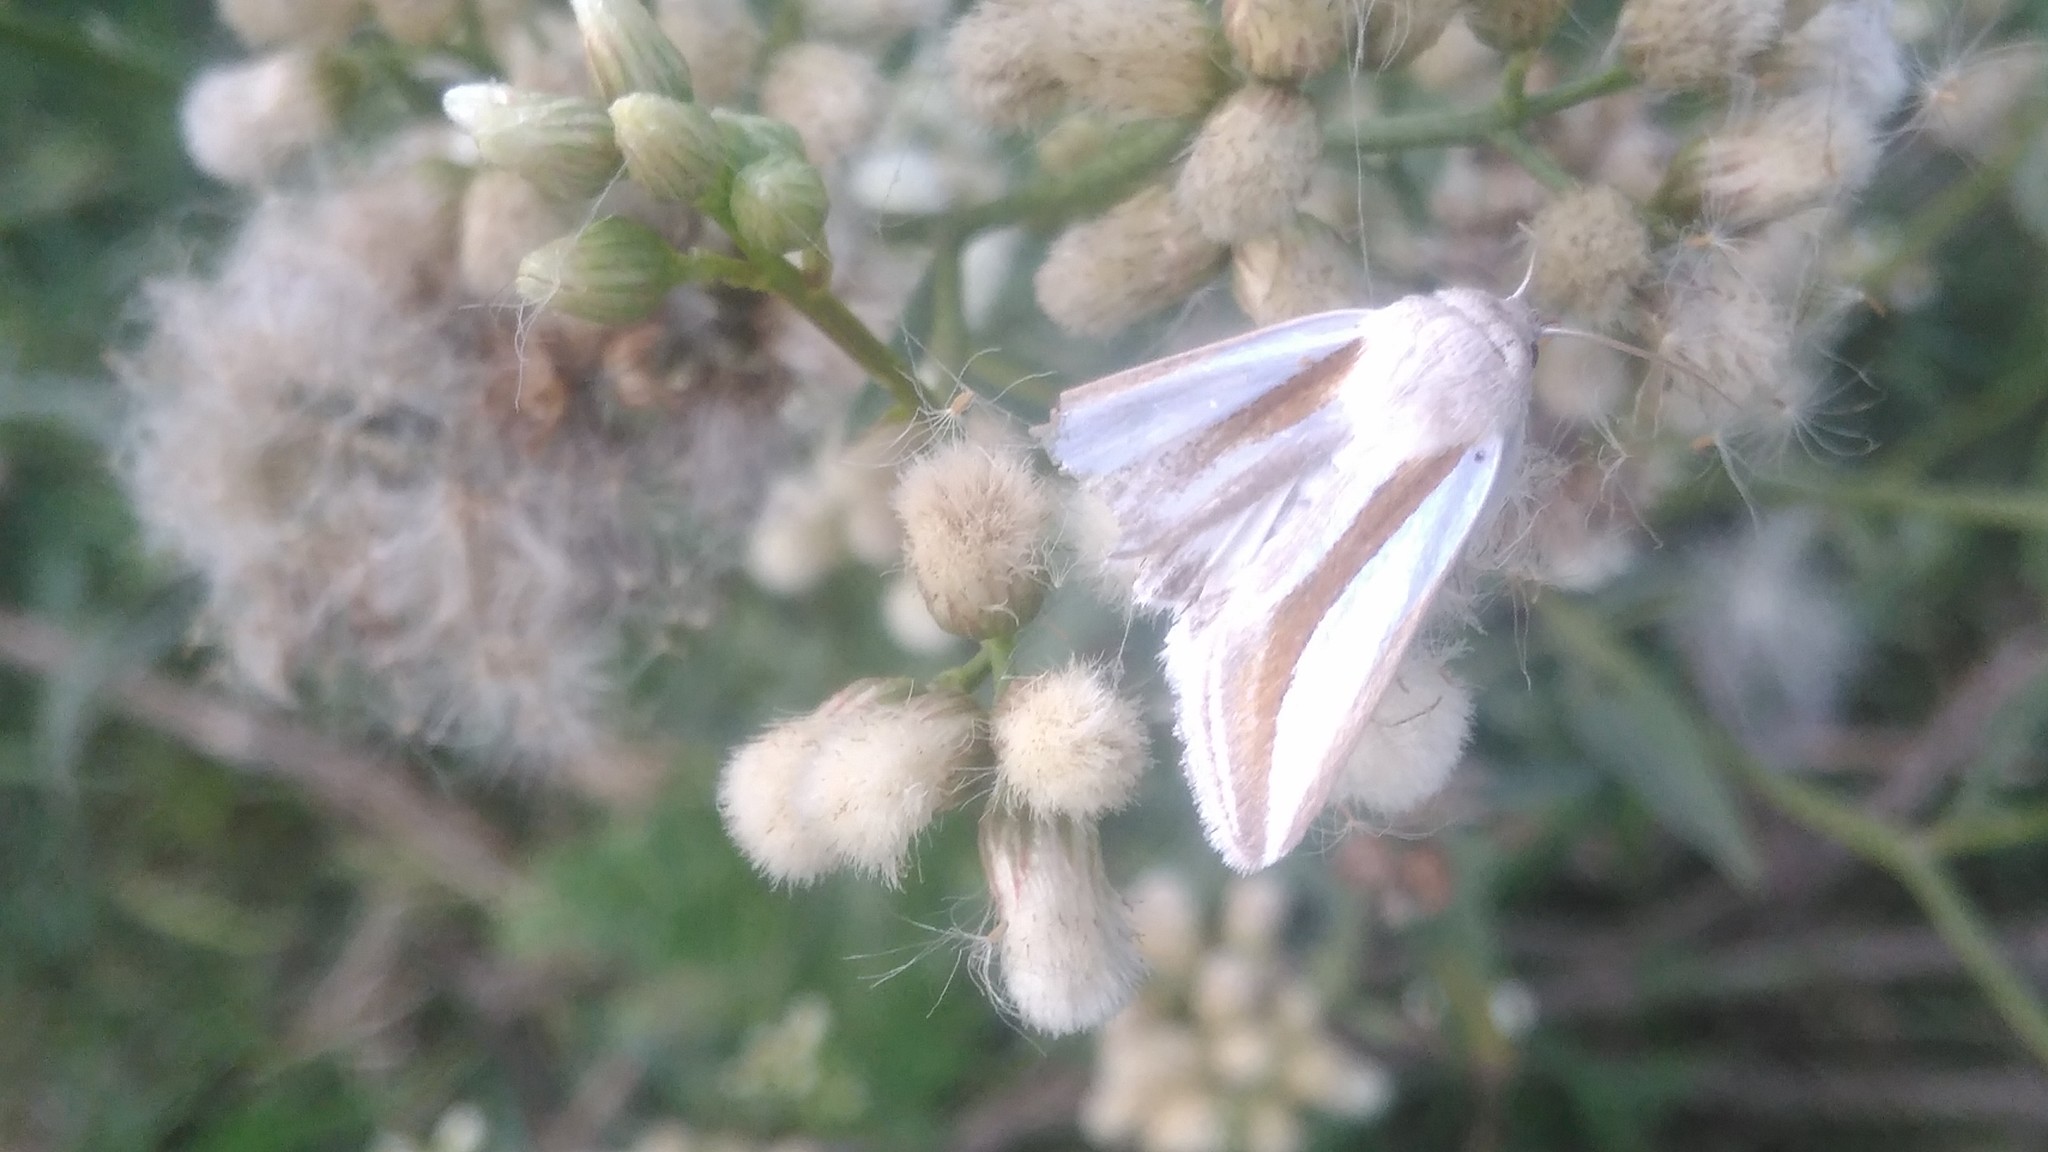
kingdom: Animalia
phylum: Arthropoda
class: Insecta
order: Lepidoptera
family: Noctuidae
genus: Cucullia
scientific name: Cucullia argyrina
